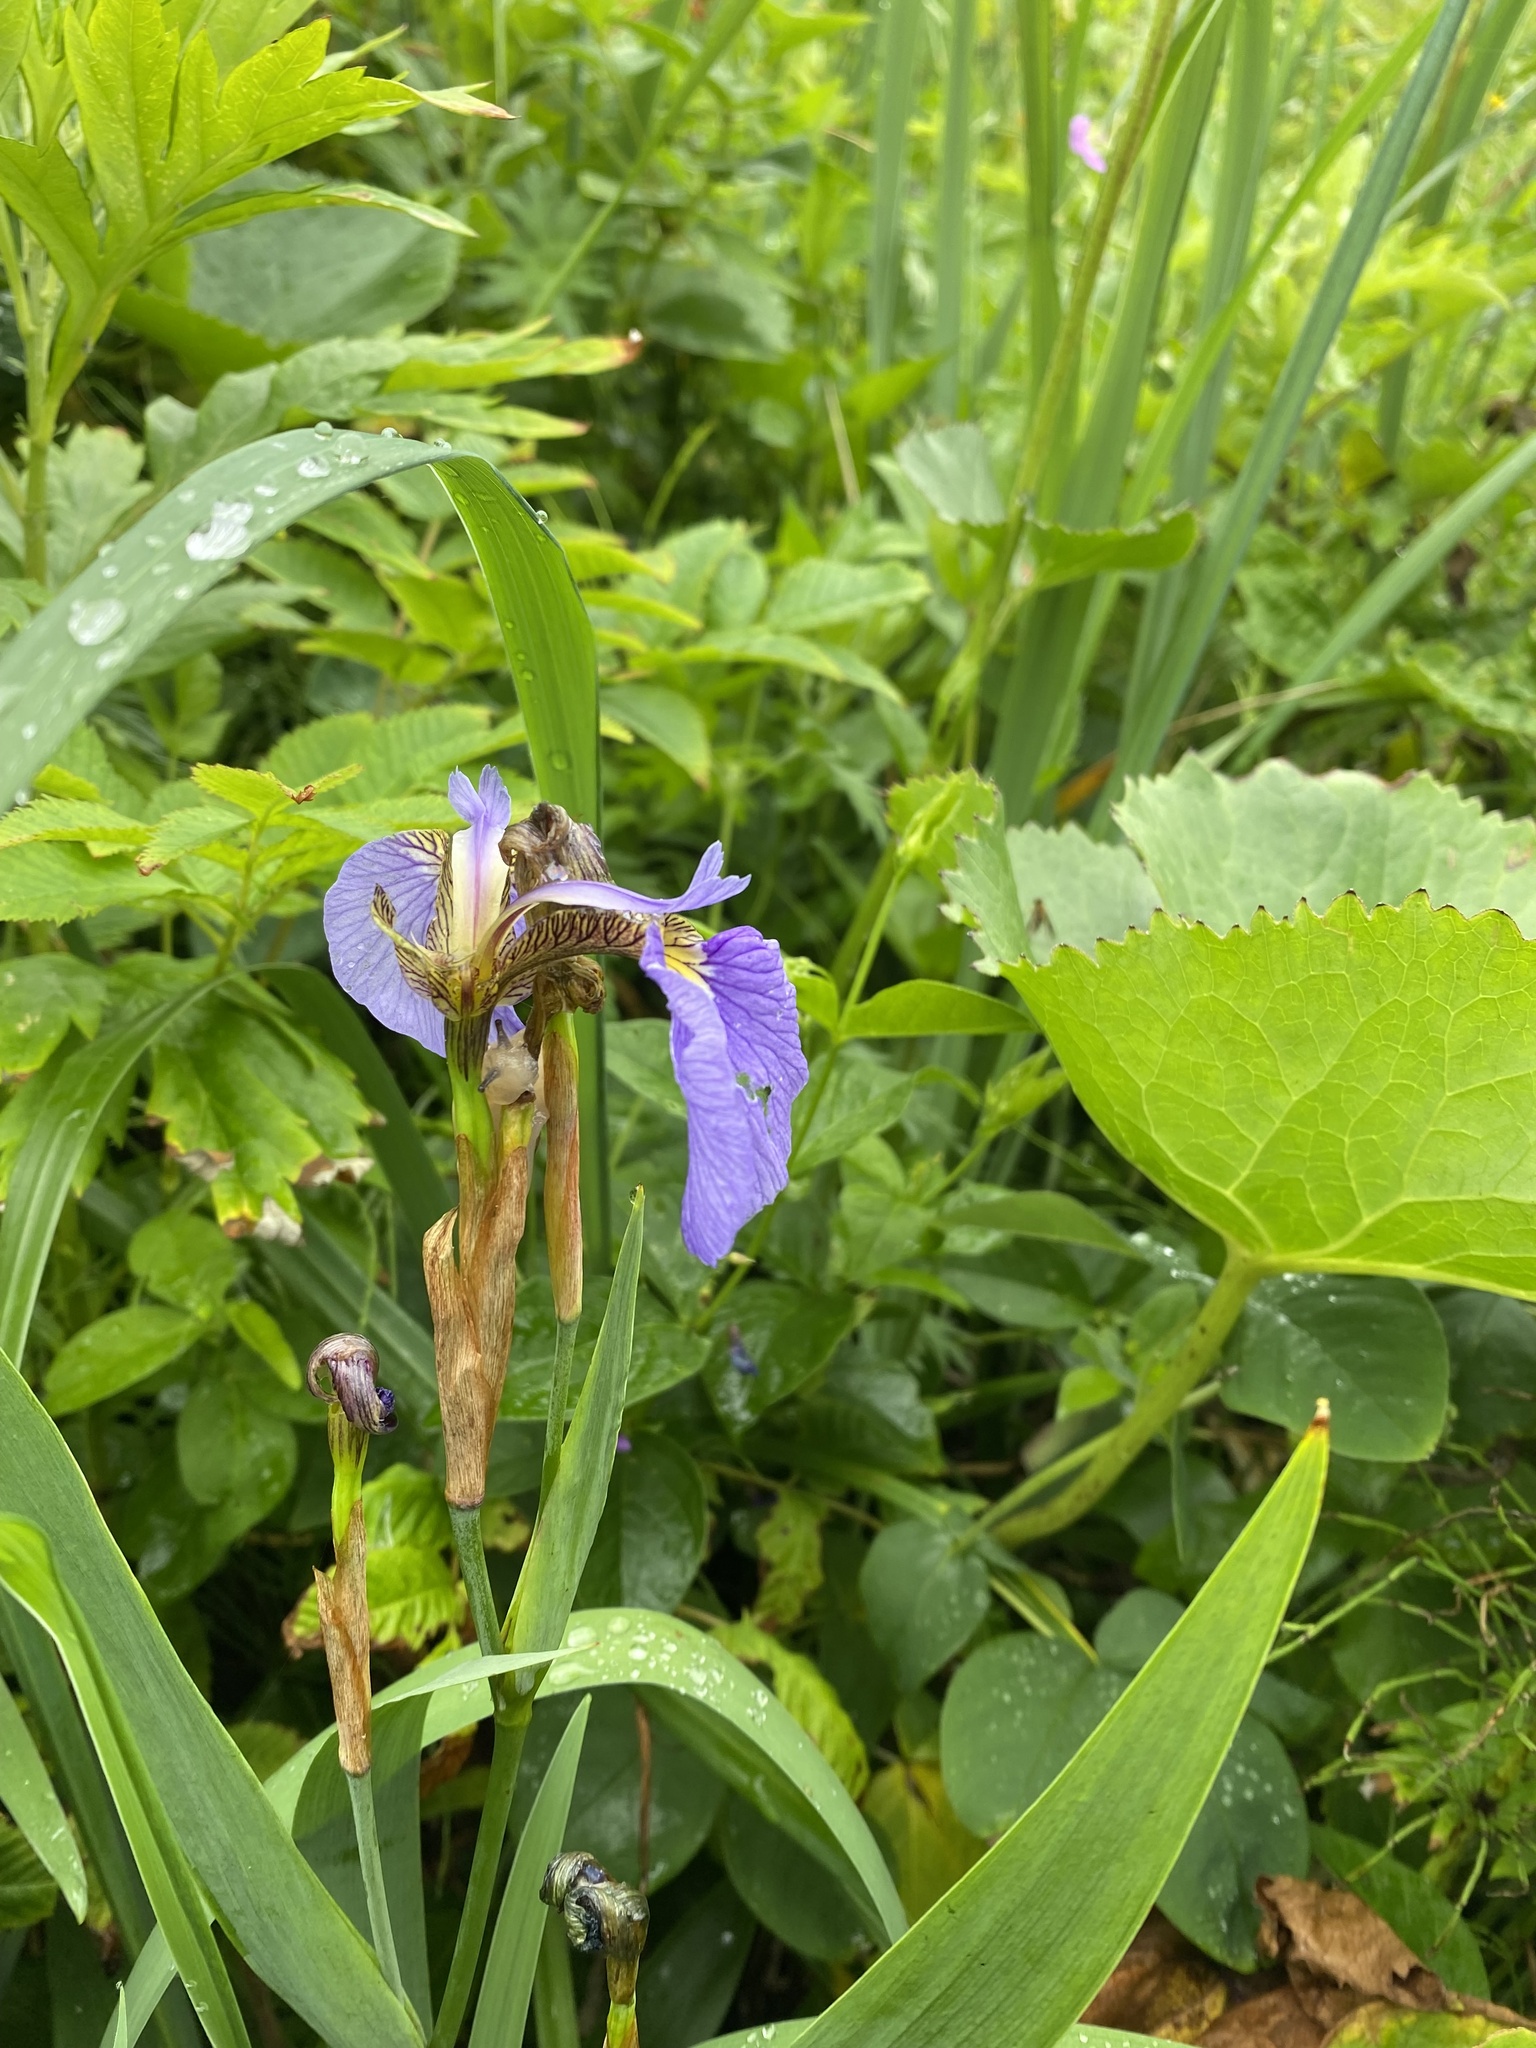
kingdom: Plantae
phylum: Tracheophyta
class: Liliopsida
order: Asparagales
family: Iridaceae
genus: Iris
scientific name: Iris setosa
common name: Arctic blue flag
